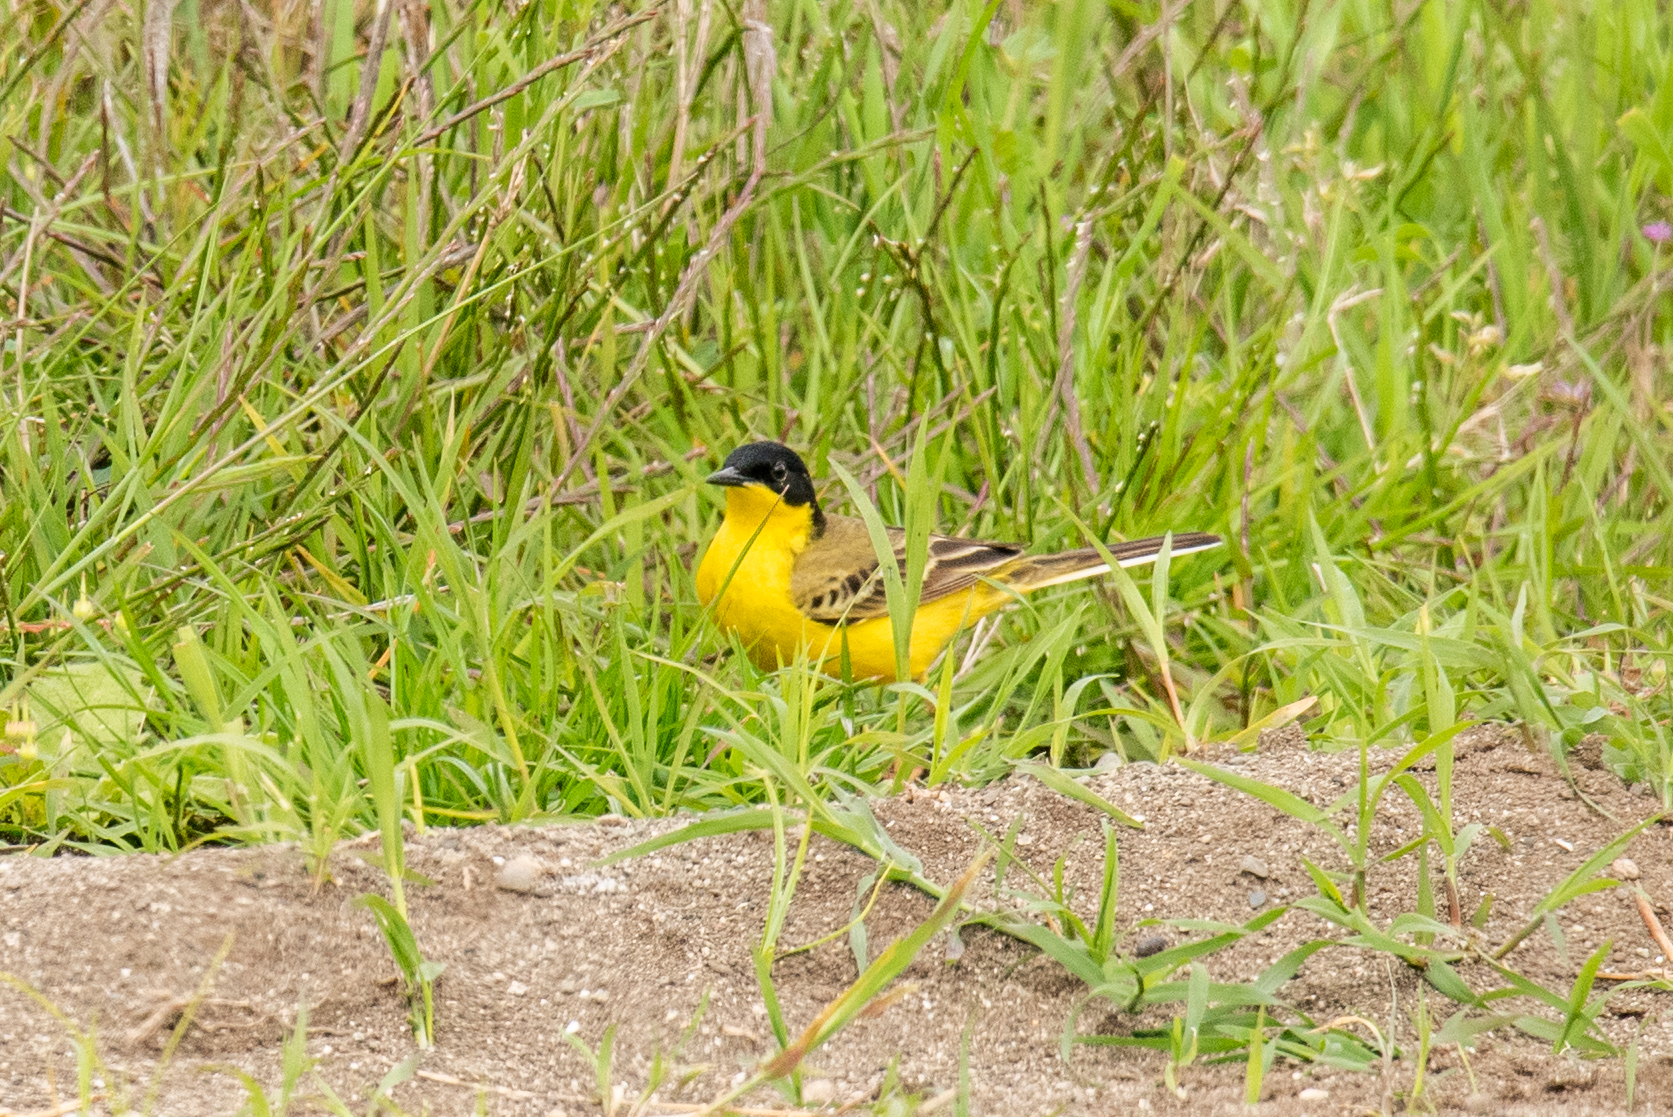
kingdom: Animalia
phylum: Chordata
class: Aves
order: Passeriformes
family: Motacillidae
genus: Motacilla
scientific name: Motacilla flava
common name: Western yellow wagtail
